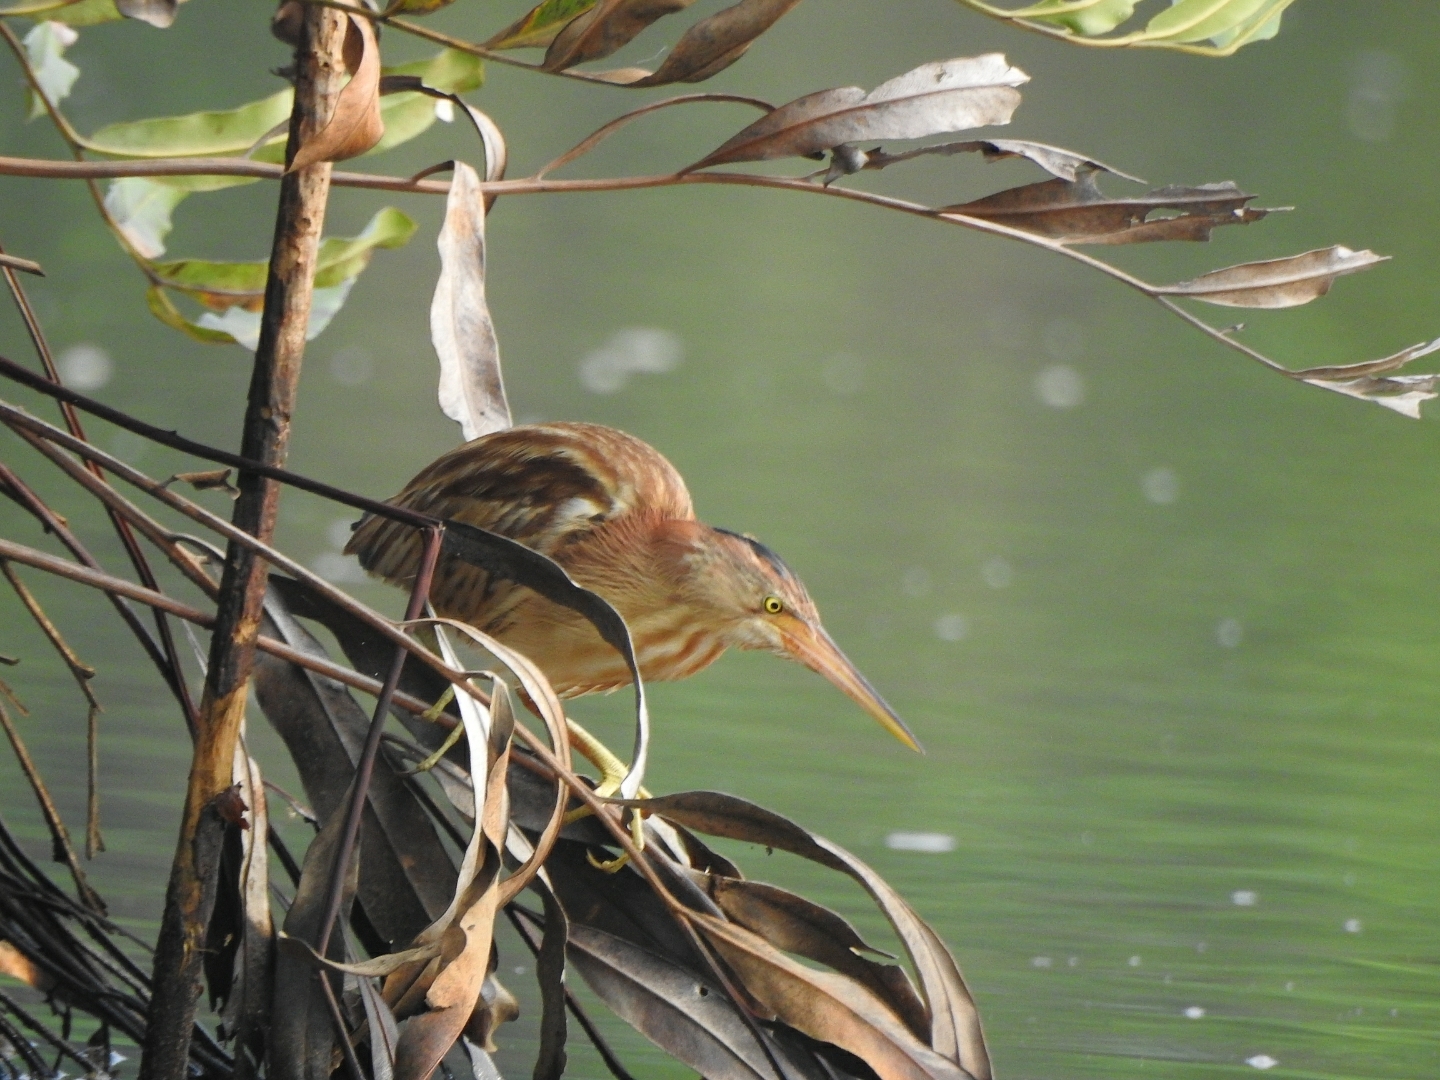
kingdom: Animalia
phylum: Chordata
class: Aves
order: Pelecaniformes
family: Ardeidae
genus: Ixobrychus
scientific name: Ixobrychus sinensis
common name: Yellow bittern
